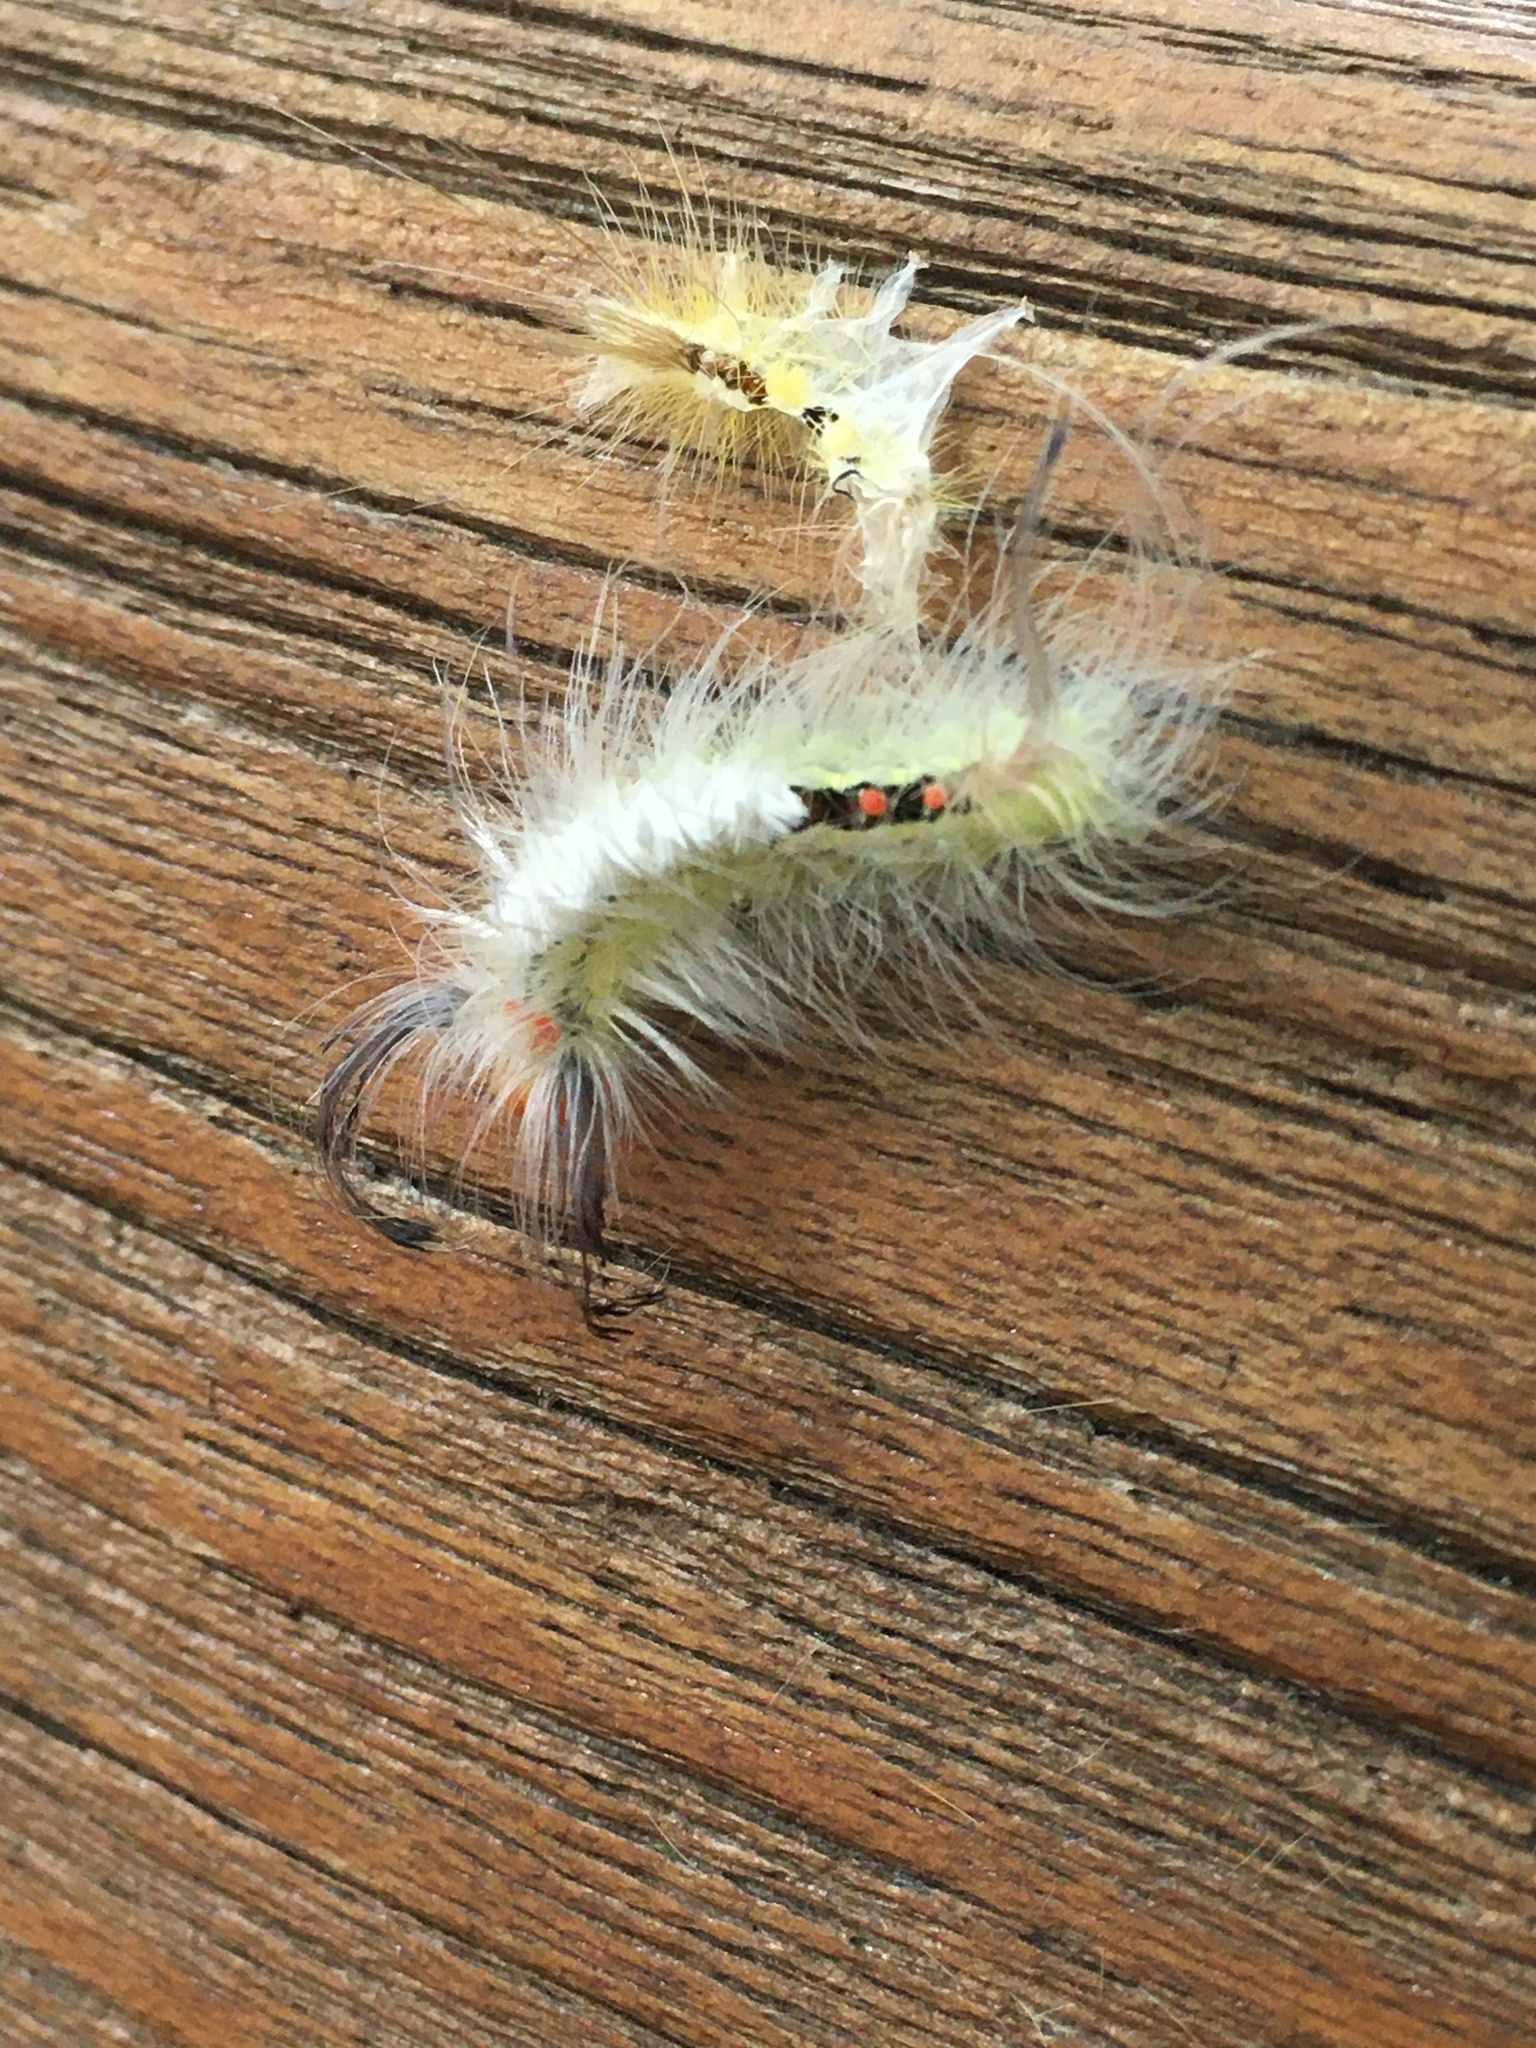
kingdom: Animalia
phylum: Arthropoda
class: Insecta
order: Lepidoptera
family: Erebidae
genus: Orgyia
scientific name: Orgyia leucostigma
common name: White-marked tussock moth
